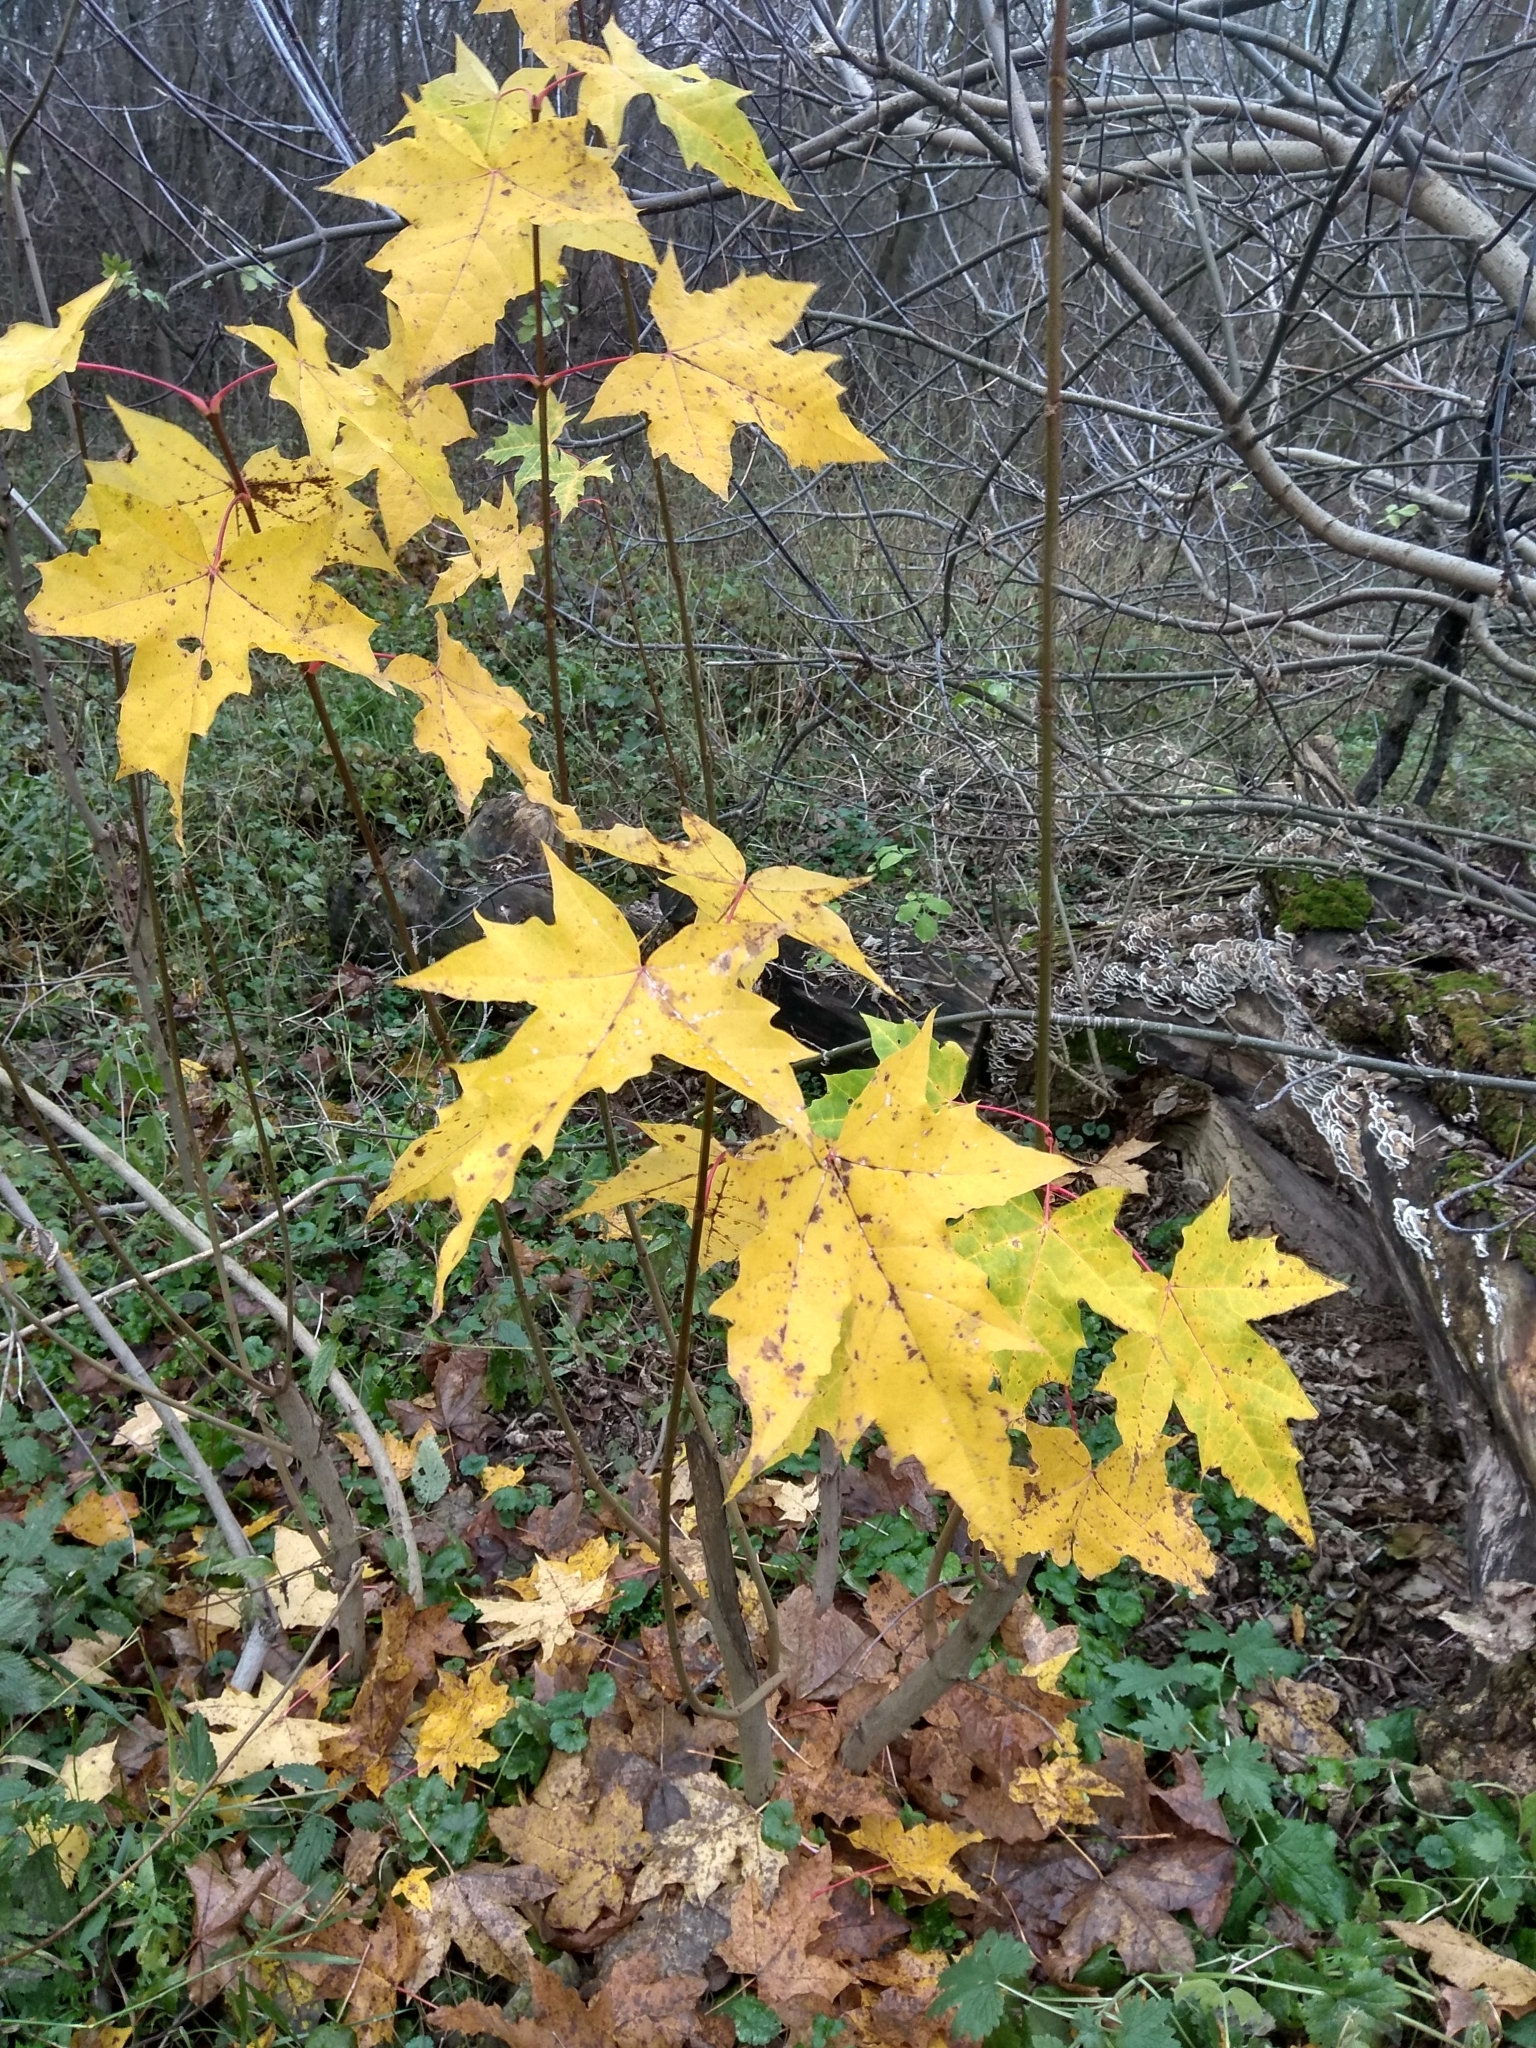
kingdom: Plantae
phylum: Tracheophyta
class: Magnoliopsida
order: Sapindales
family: Sapindaceae
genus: Acer
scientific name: Acer platanoides
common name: Norway maple
